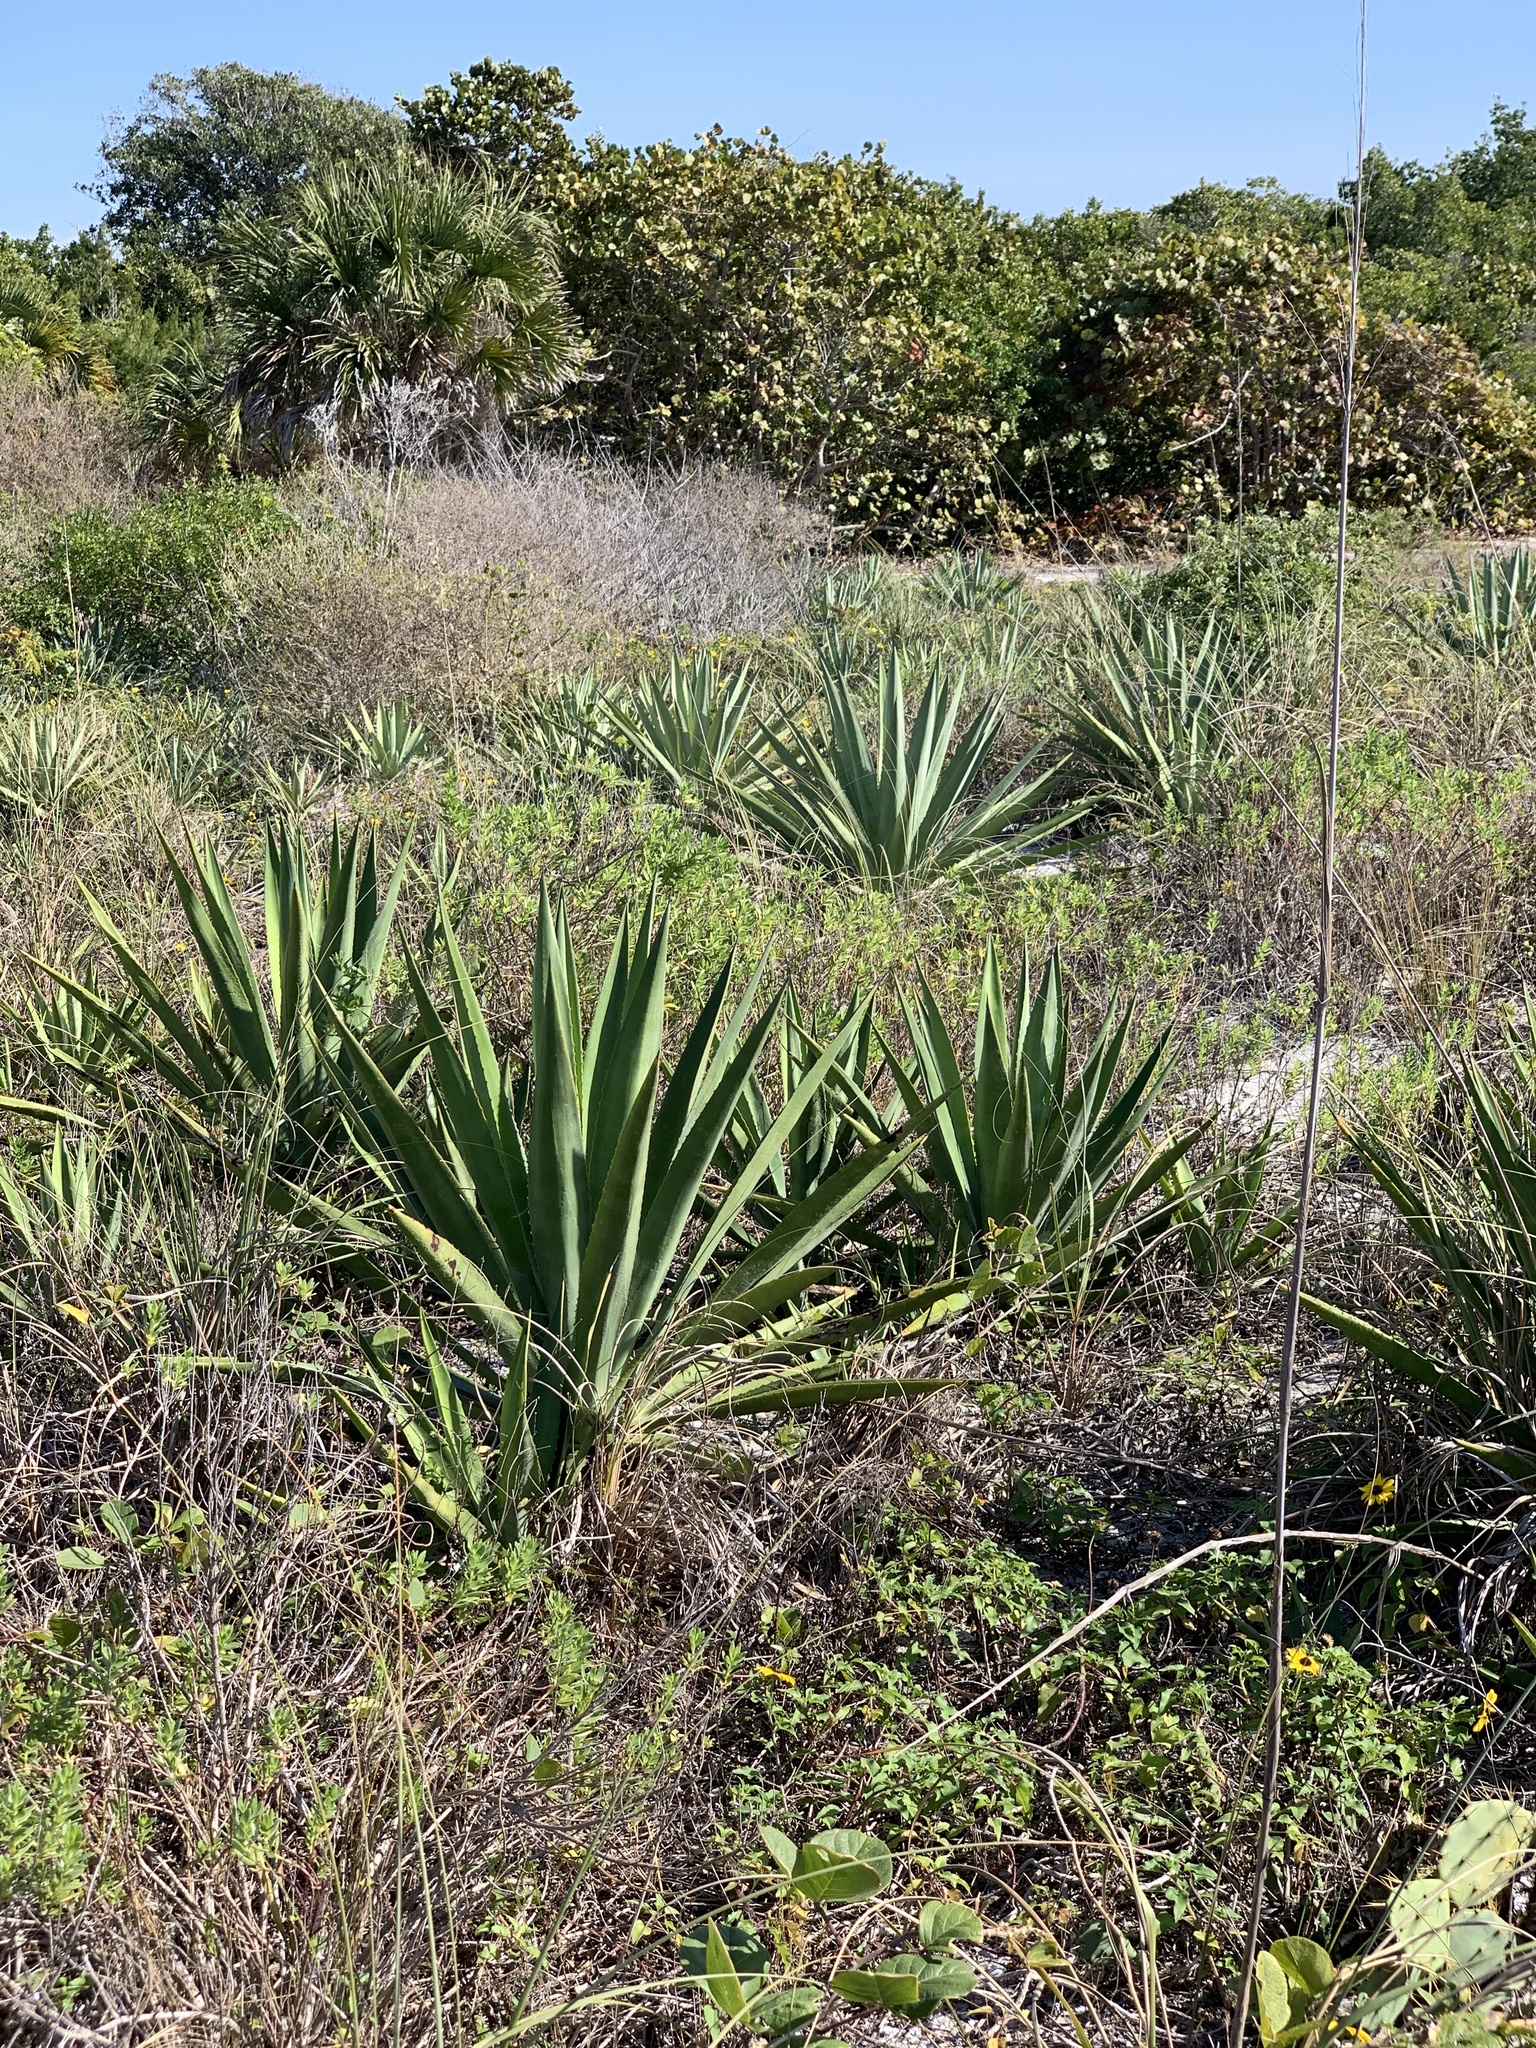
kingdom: Plantae
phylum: Tracheophyta
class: Liliopsida
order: Asparagales
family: Asparagaceae
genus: Agave
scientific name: Agave decipiens
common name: False sisal
